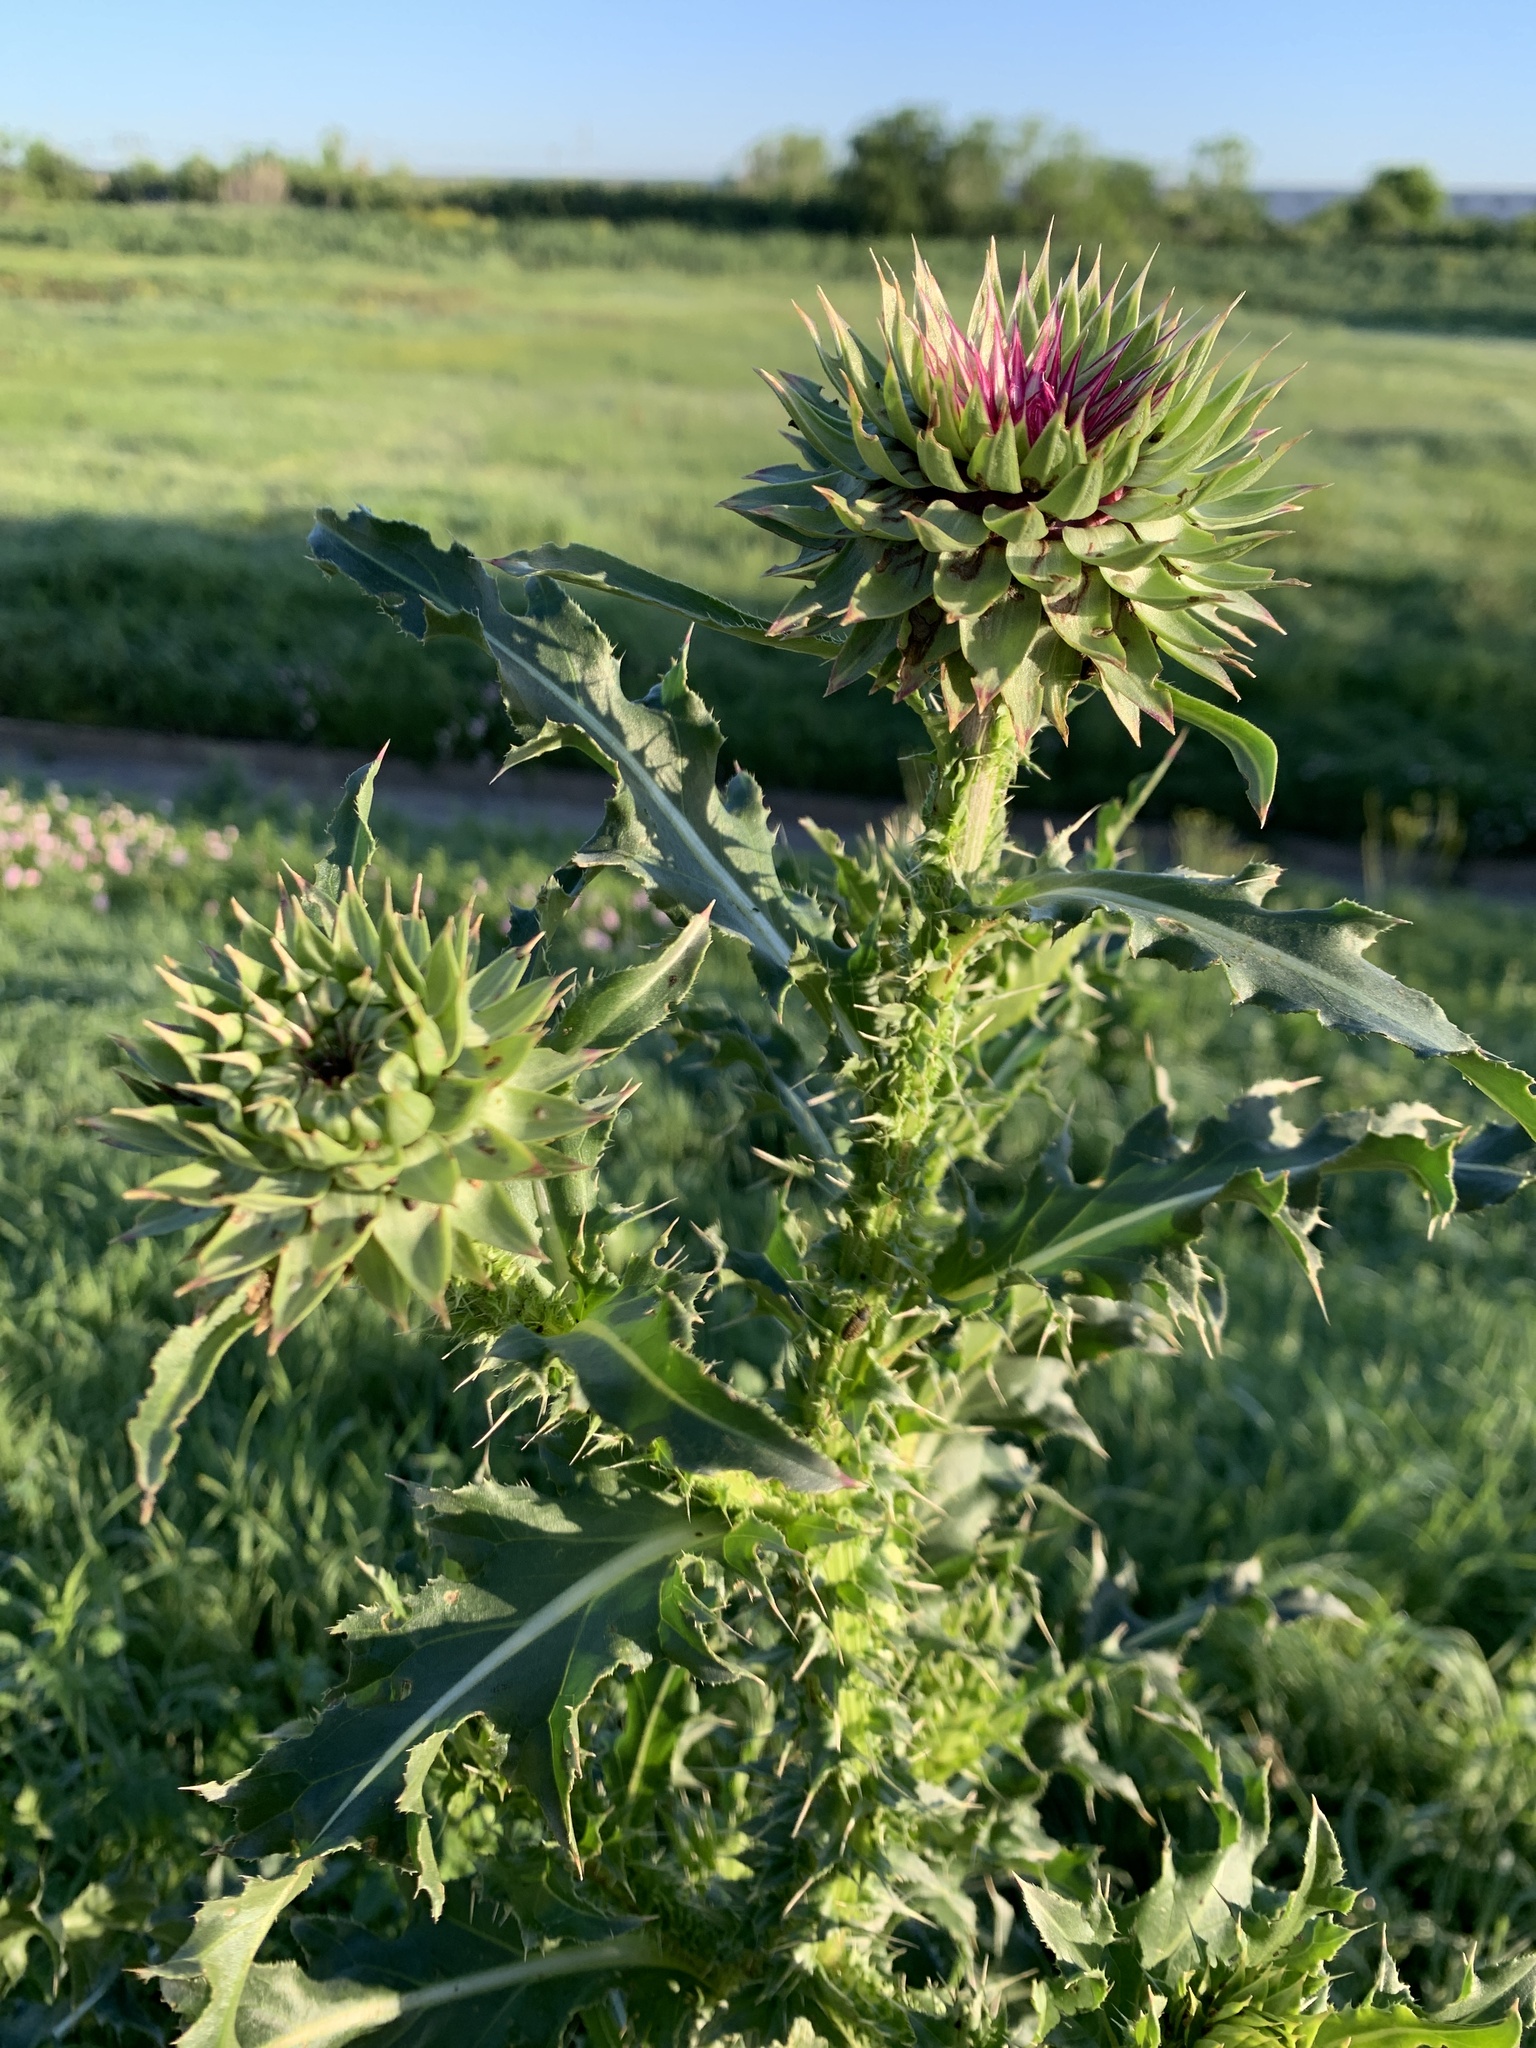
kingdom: Plantae
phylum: Tracheophyta
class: Magnoliopsida
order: Asterales
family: Asteraceae
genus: Carduus
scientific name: Carduus nutans
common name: Musk thistle
